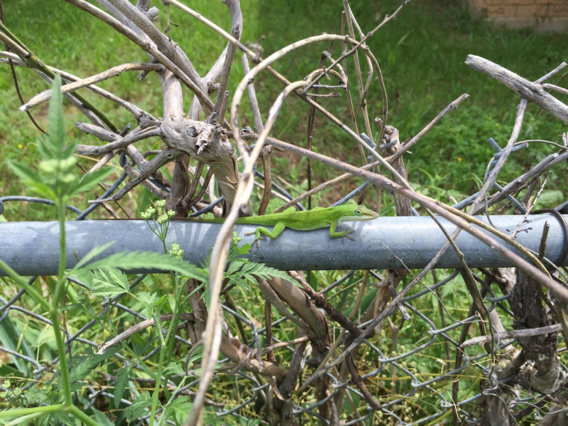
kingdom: Animalia
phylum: Chordata
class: Squamata
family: Dactyloidae
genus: Anolis
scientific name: Anolis carolinensis
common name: Green anole
